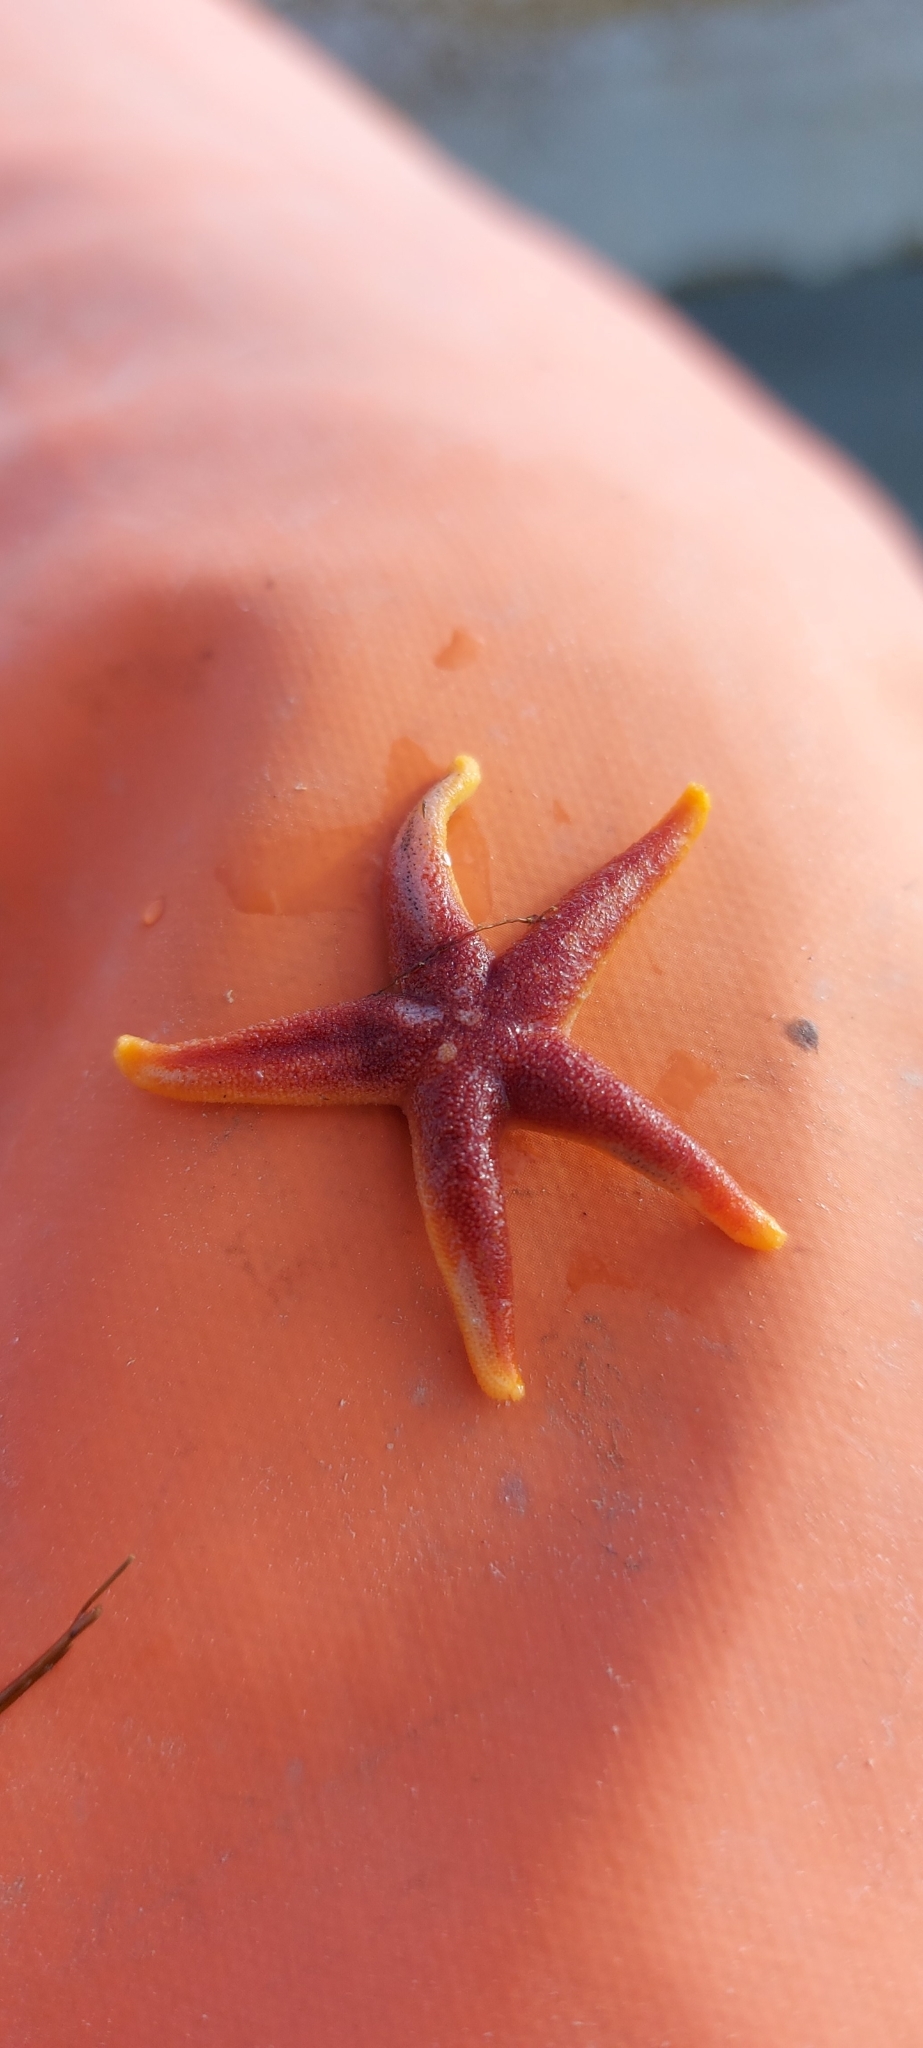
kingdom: Animalia
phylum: Echinodermata
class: Asteroidea
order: Spinulosida
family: Echinasteridae
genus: Henricia
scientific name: Henricia
